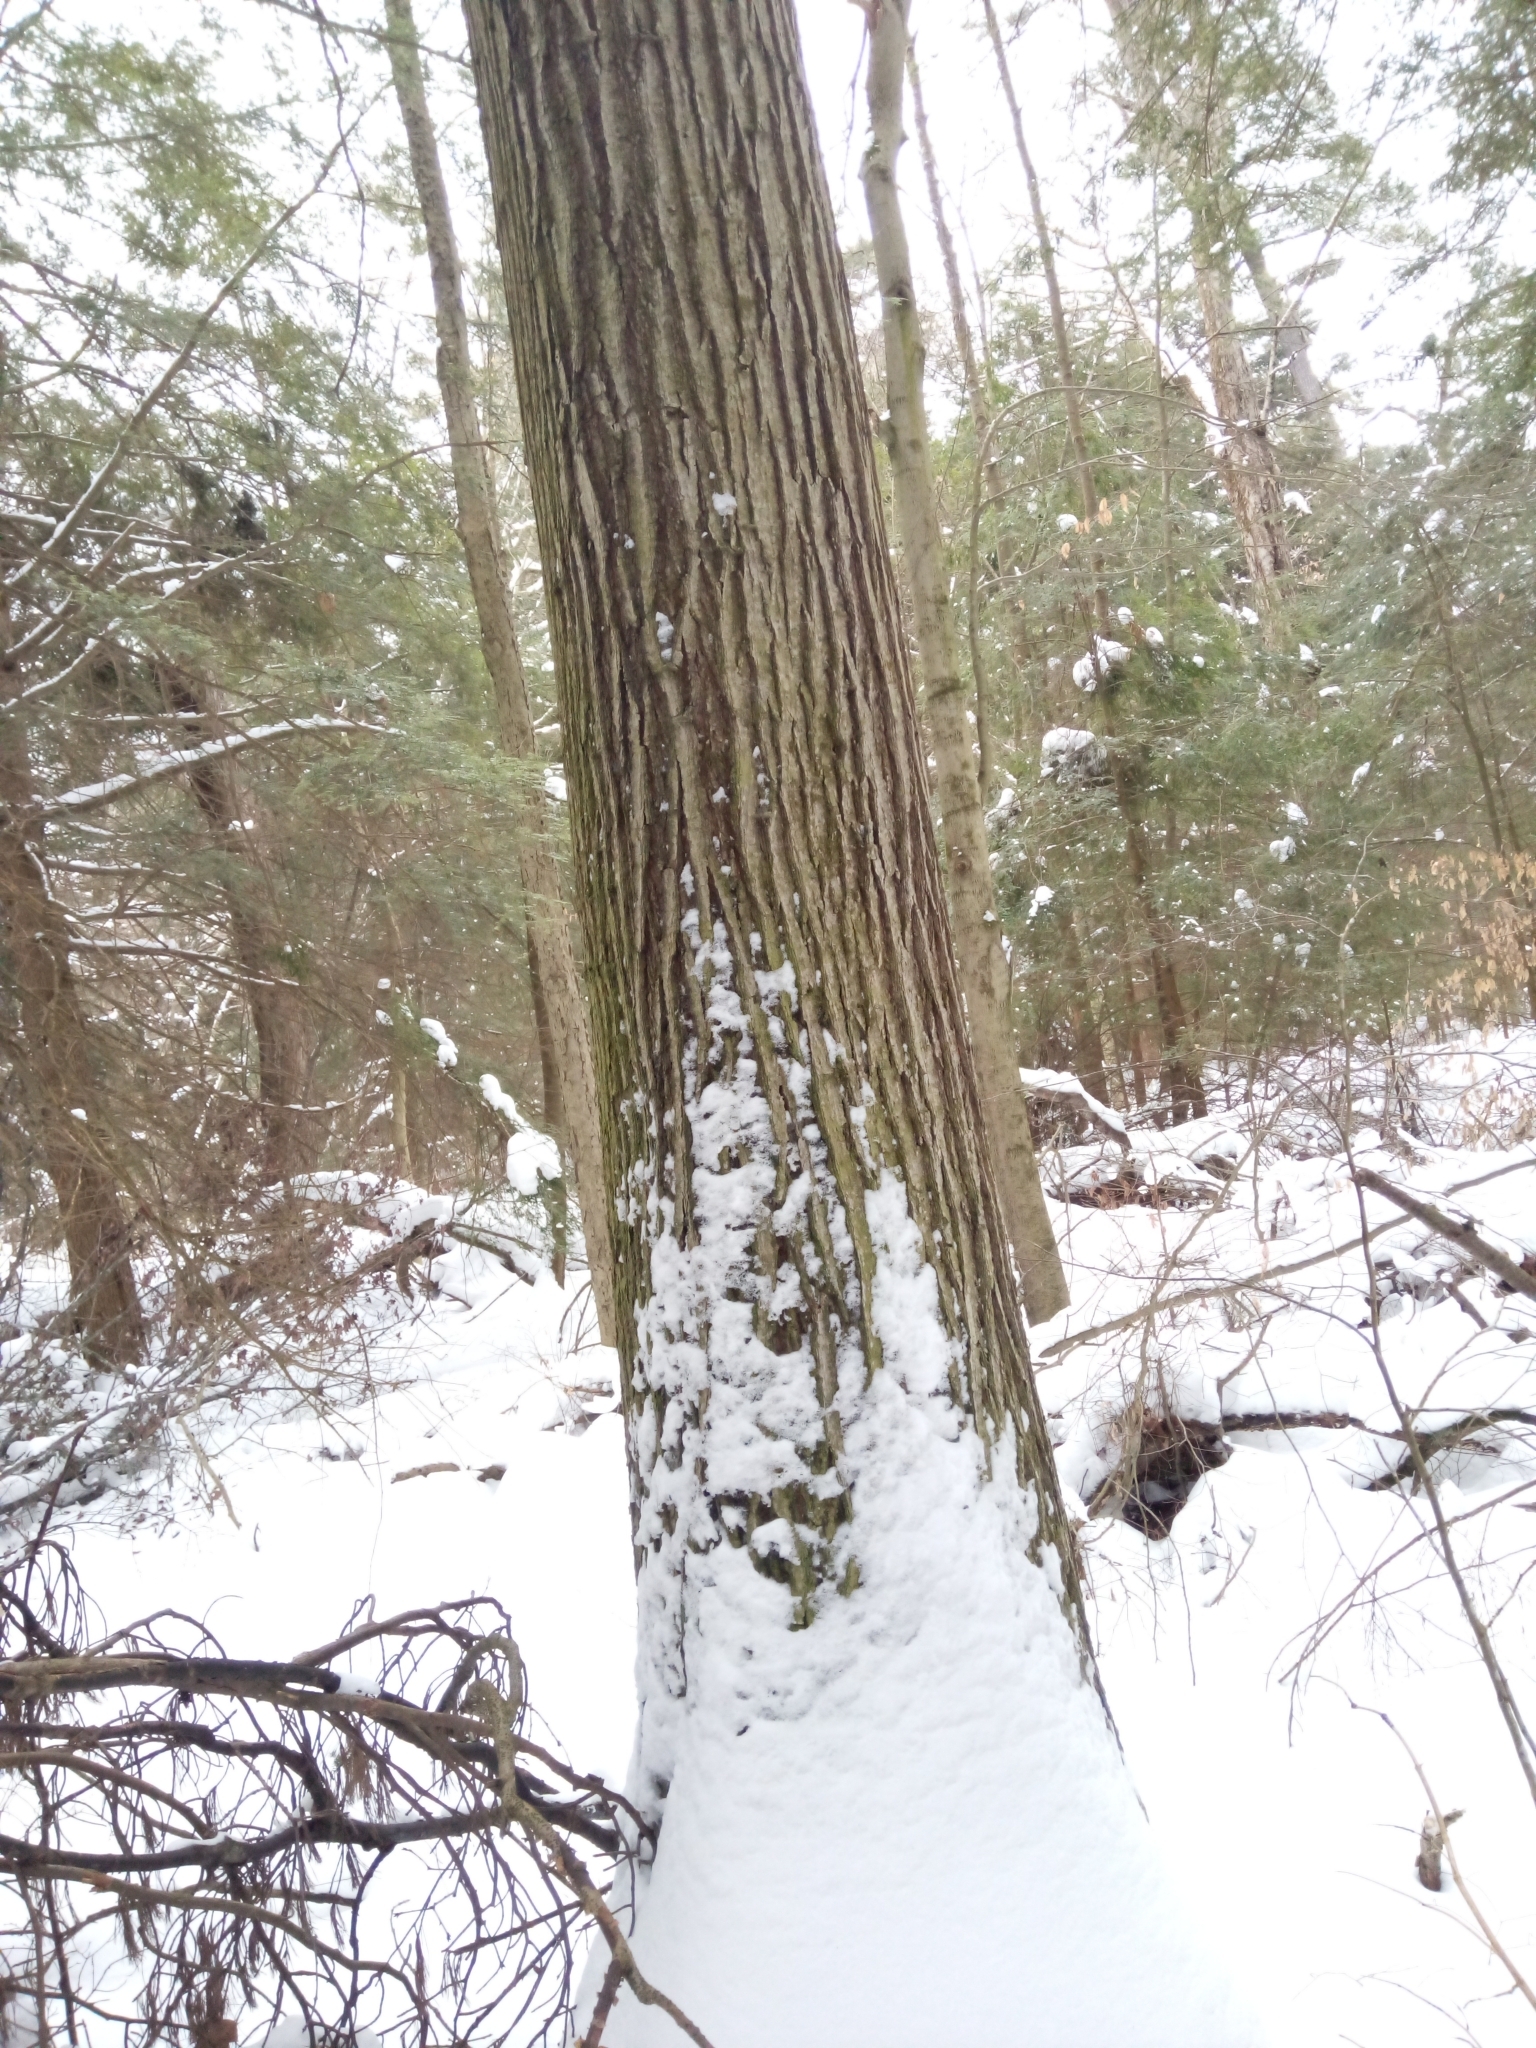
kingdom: Plantae
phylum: Tracheophyta
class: Magnoliopsida
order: Fagales
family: Fagaceae
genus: Quercus
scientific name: Quercus rubra
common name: Red oak
